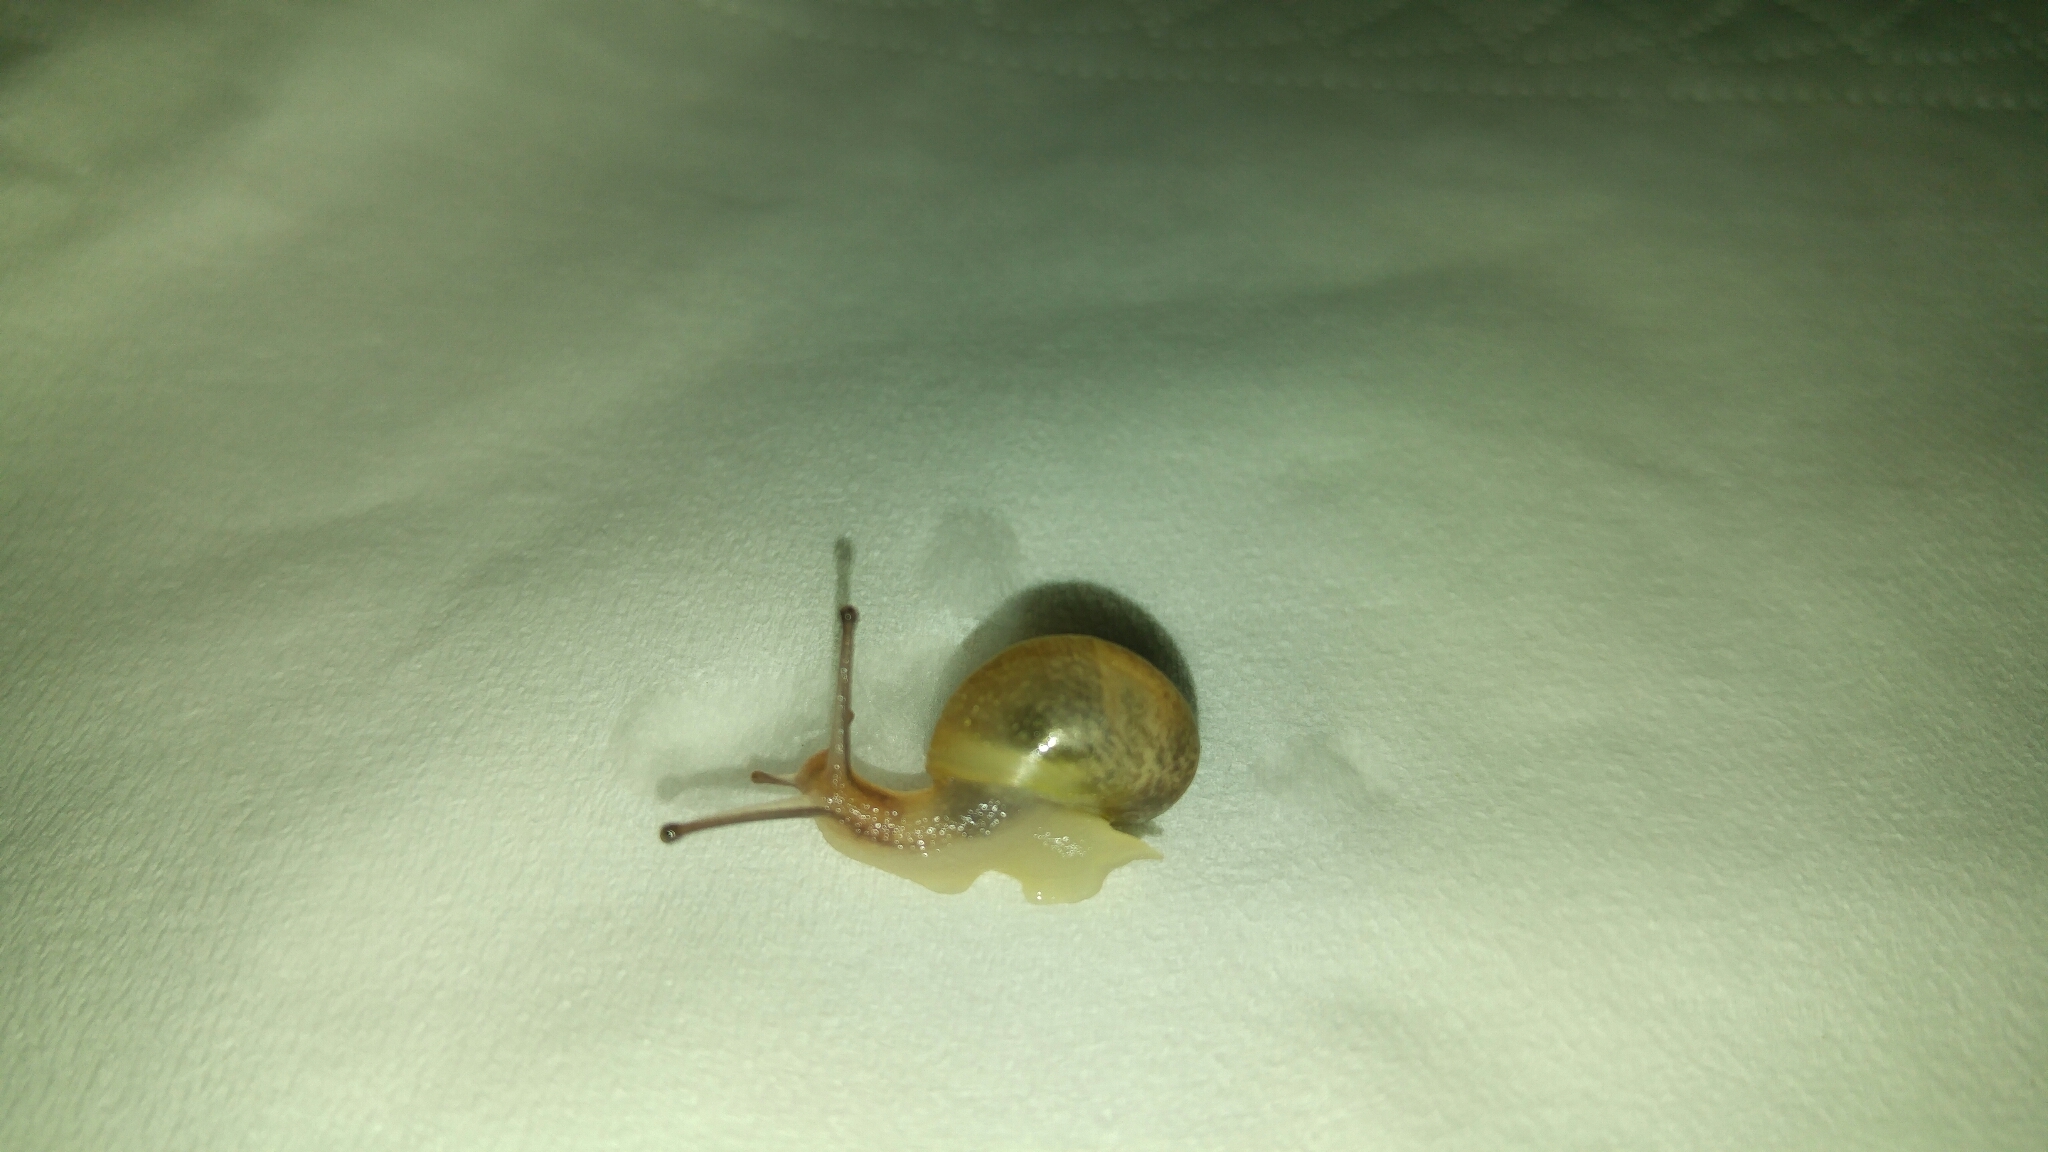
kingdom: Animalia
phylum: Mollusca
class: Gastropoda
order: Stylommatophora
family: Helicidae
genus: Cornu
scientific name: Cornu aspersum
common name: Brown garden snail
